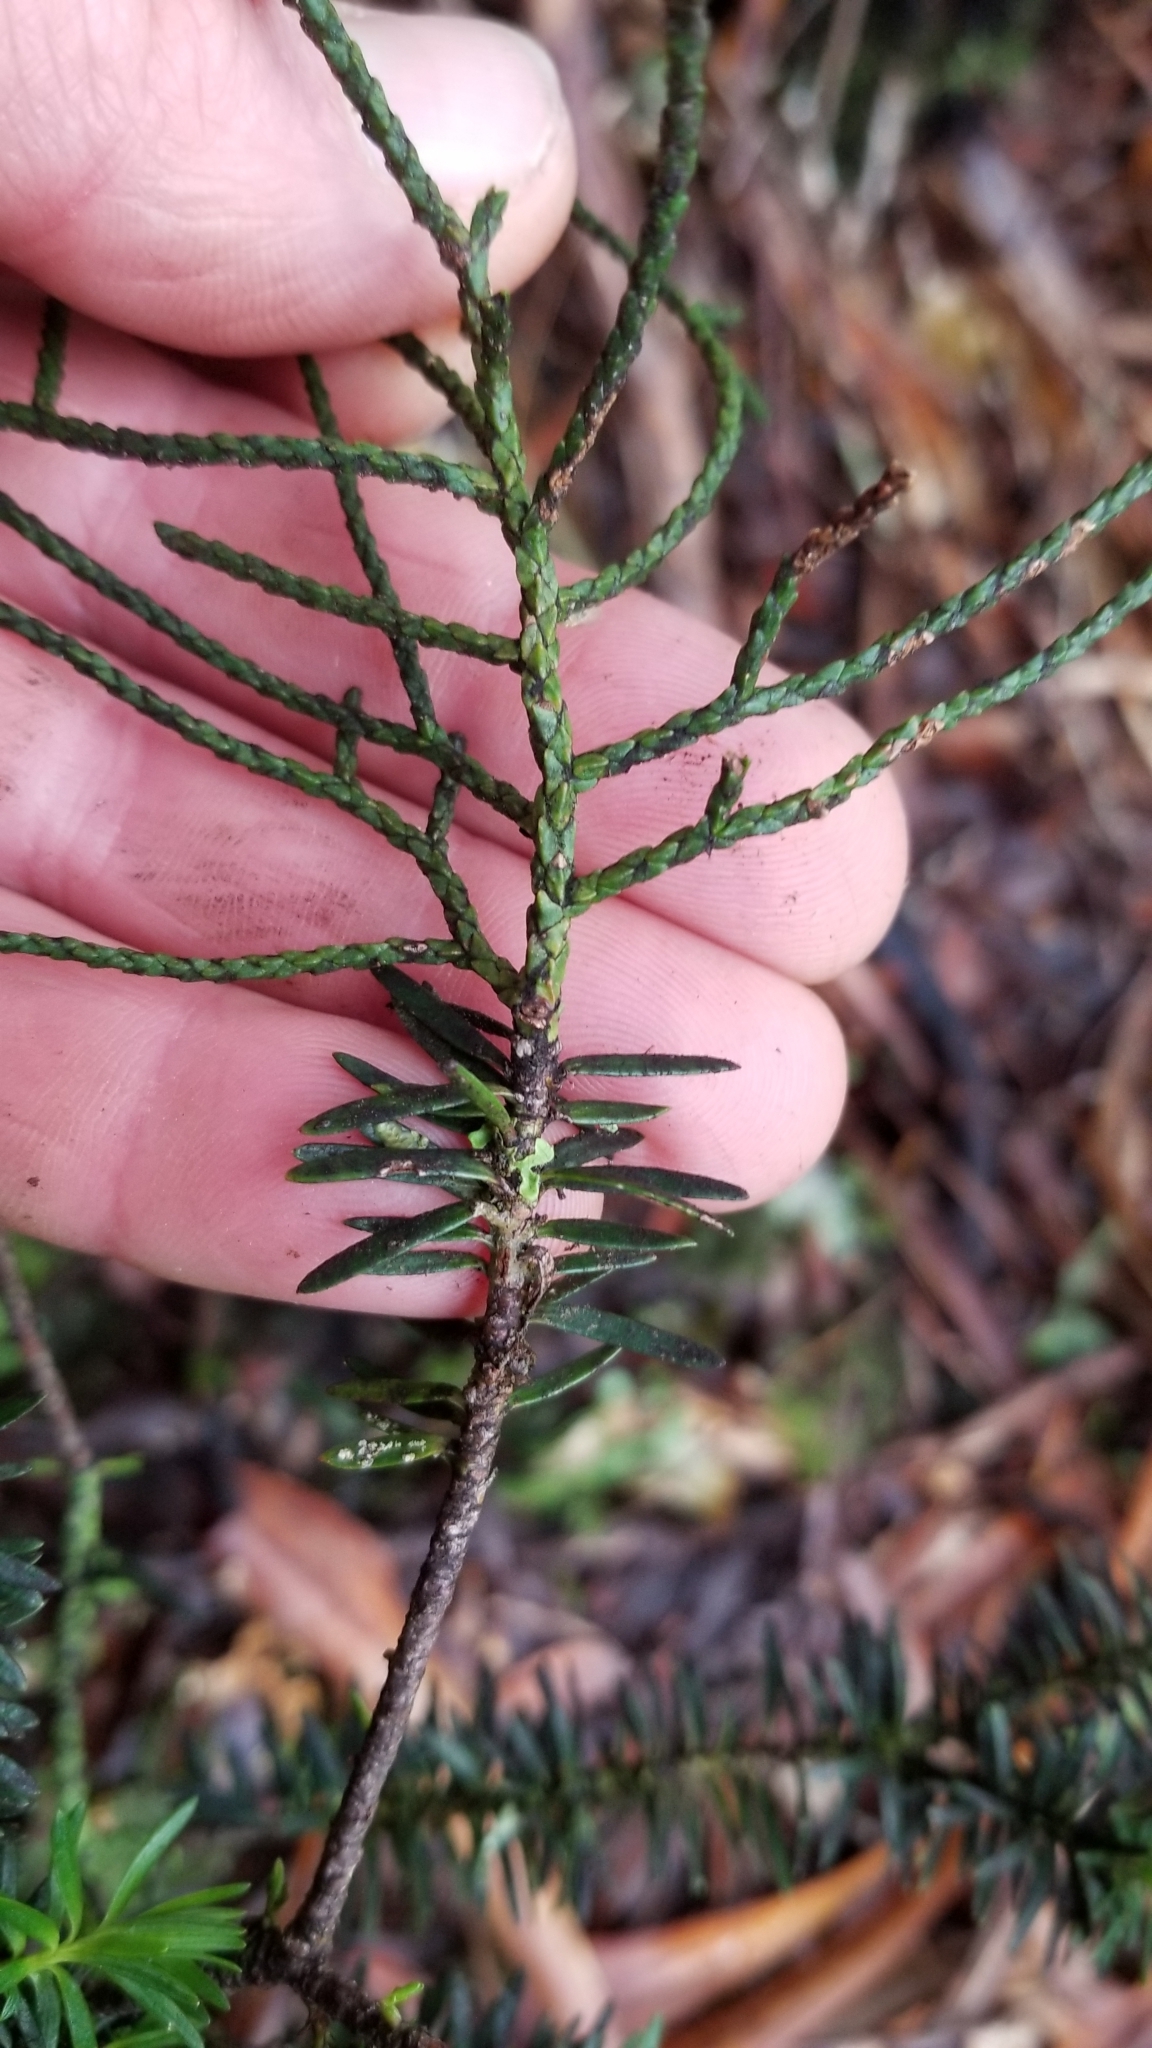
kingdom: Plantae
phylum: Tracheophyta
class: Pinopsida
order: Pinales
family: Podocarpaceae
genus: Halocarpus
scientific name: Halocarpus biformis
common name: Alpine tarwood
